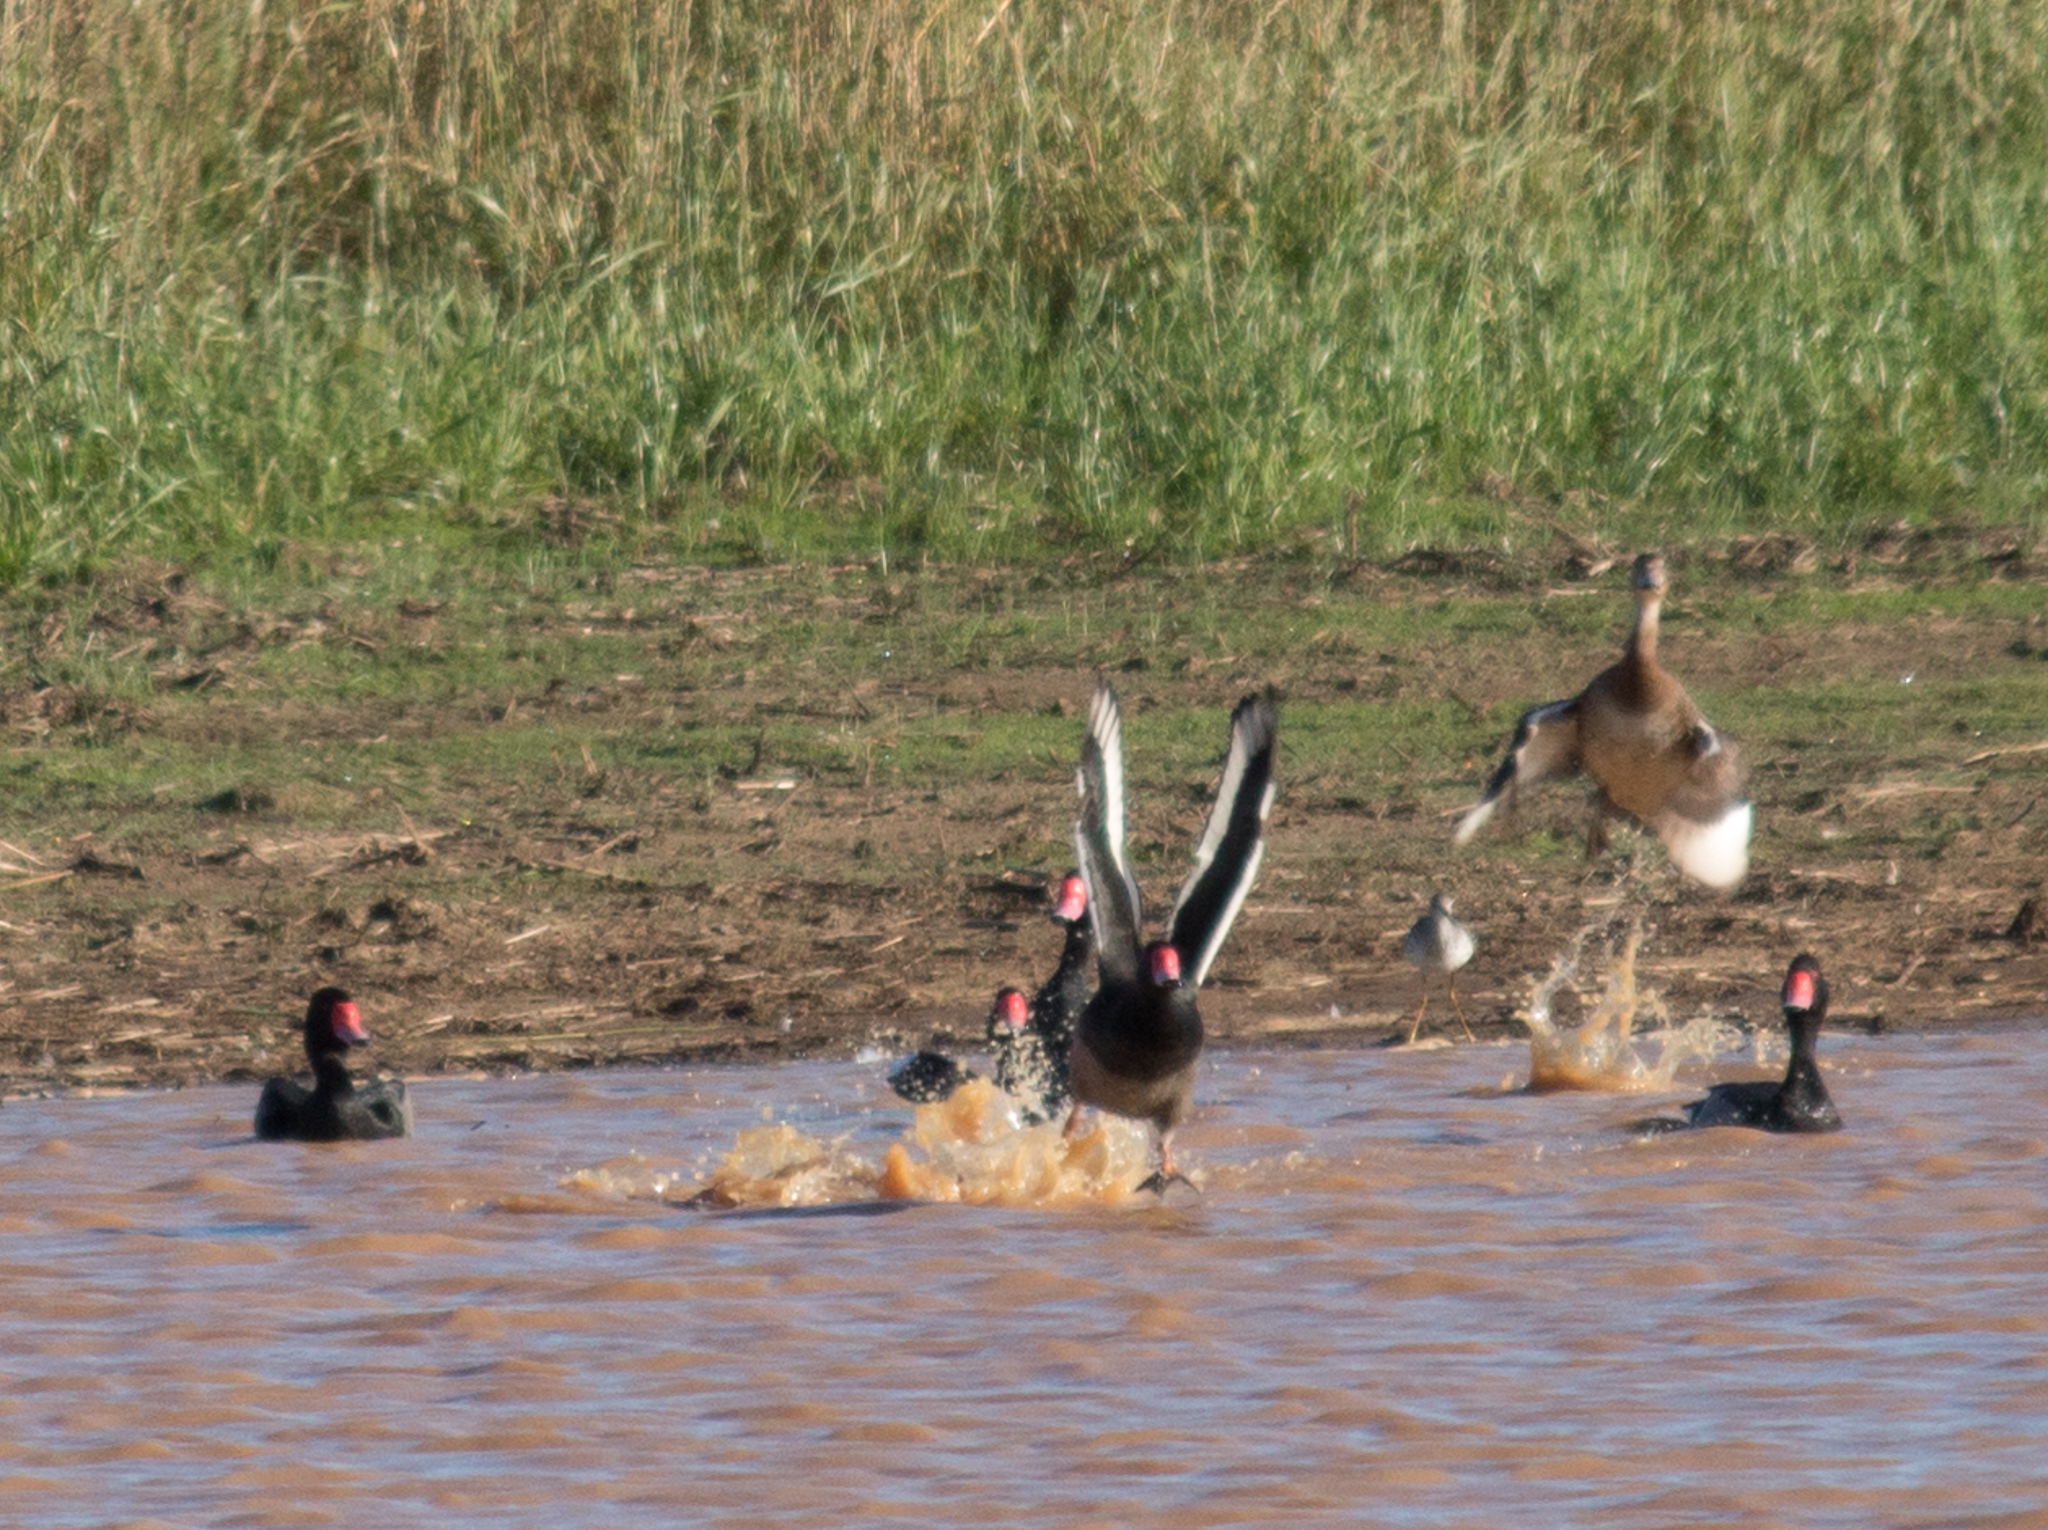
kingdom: Animalia
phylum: Chordata
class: Aves
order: Anseriformes
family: Anatidae
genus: Netta
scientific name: Netta peposaca
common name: Rosy-billed pochard
